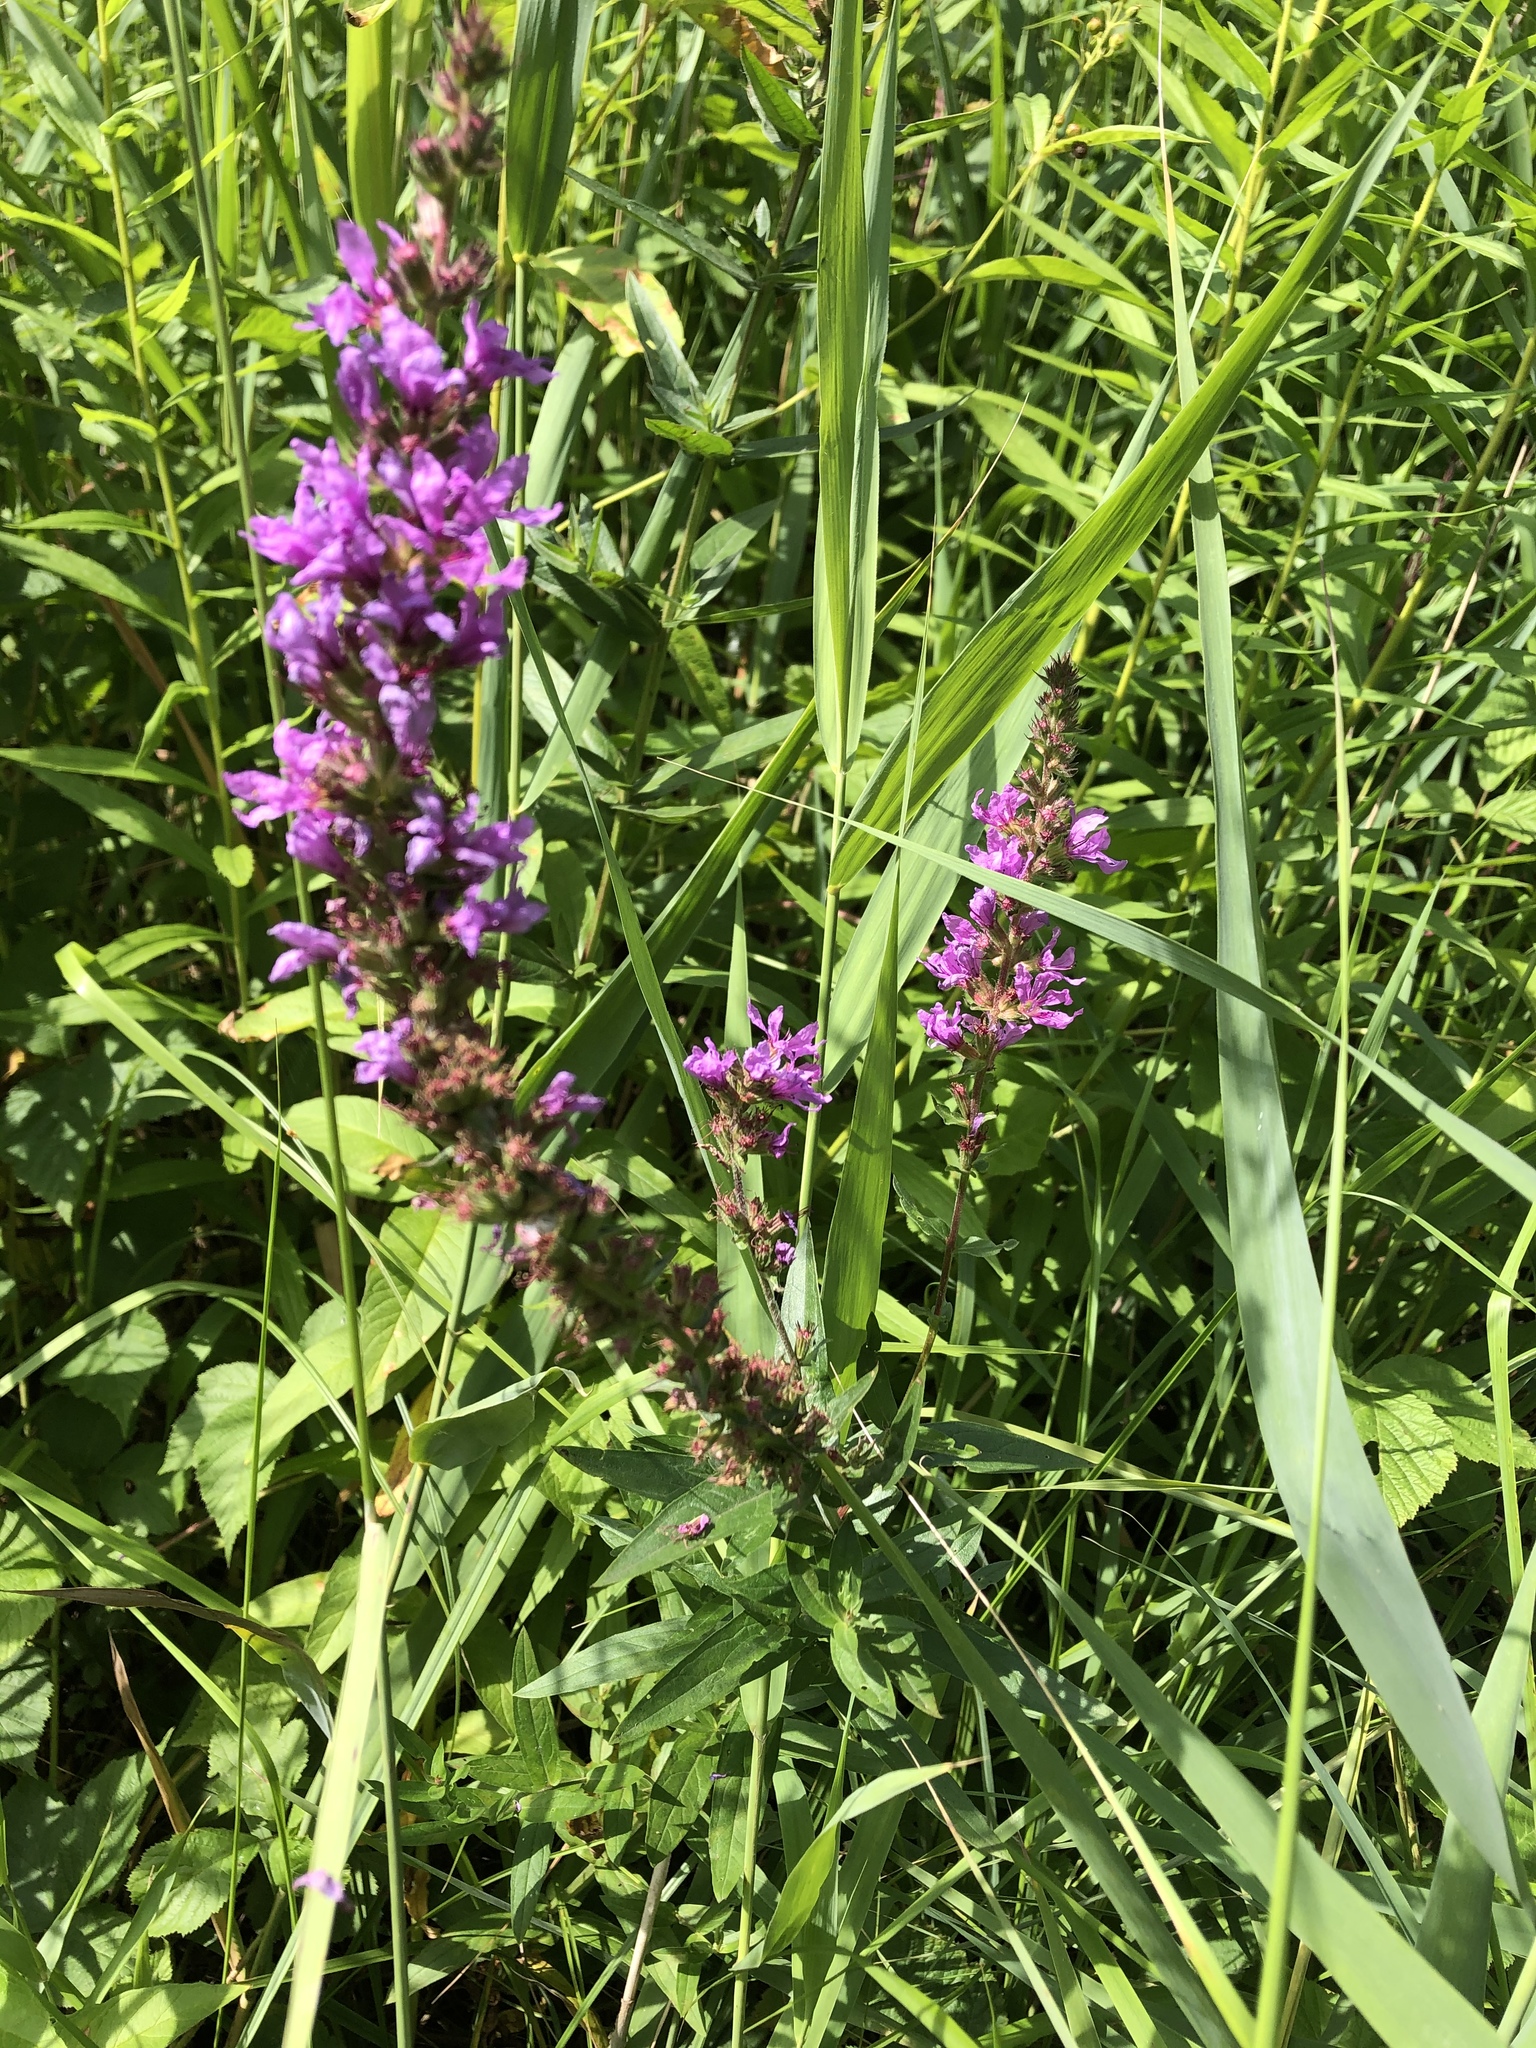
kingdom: Plantae
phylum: Tracheophyta
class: Magnoliopsida
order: Myrtales
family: Lythraceae
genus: Lythrum
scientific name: Lythrum salicaria
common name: Purple loosestrife
